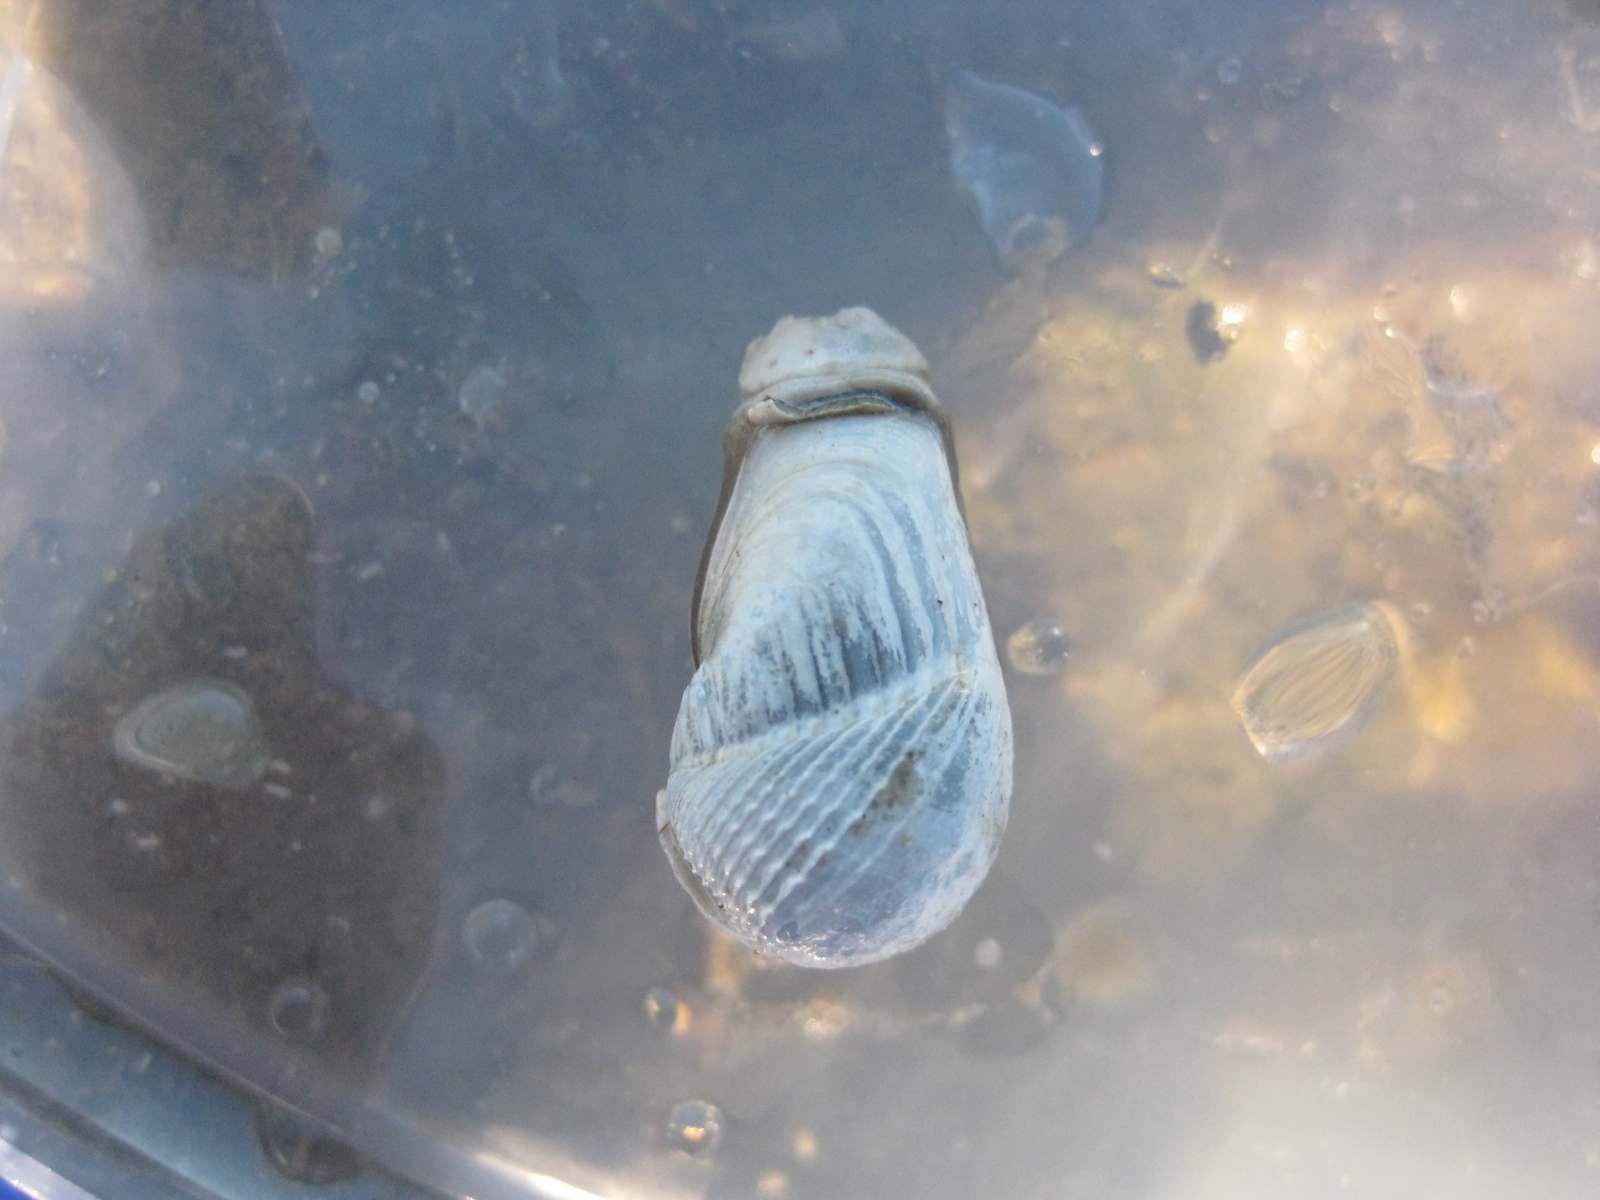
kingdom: Animalia
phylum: Mollusca
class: Bivalvia
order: Myida
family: Pholadidae
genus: Pholadidea
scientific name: Pholadidea tridens
